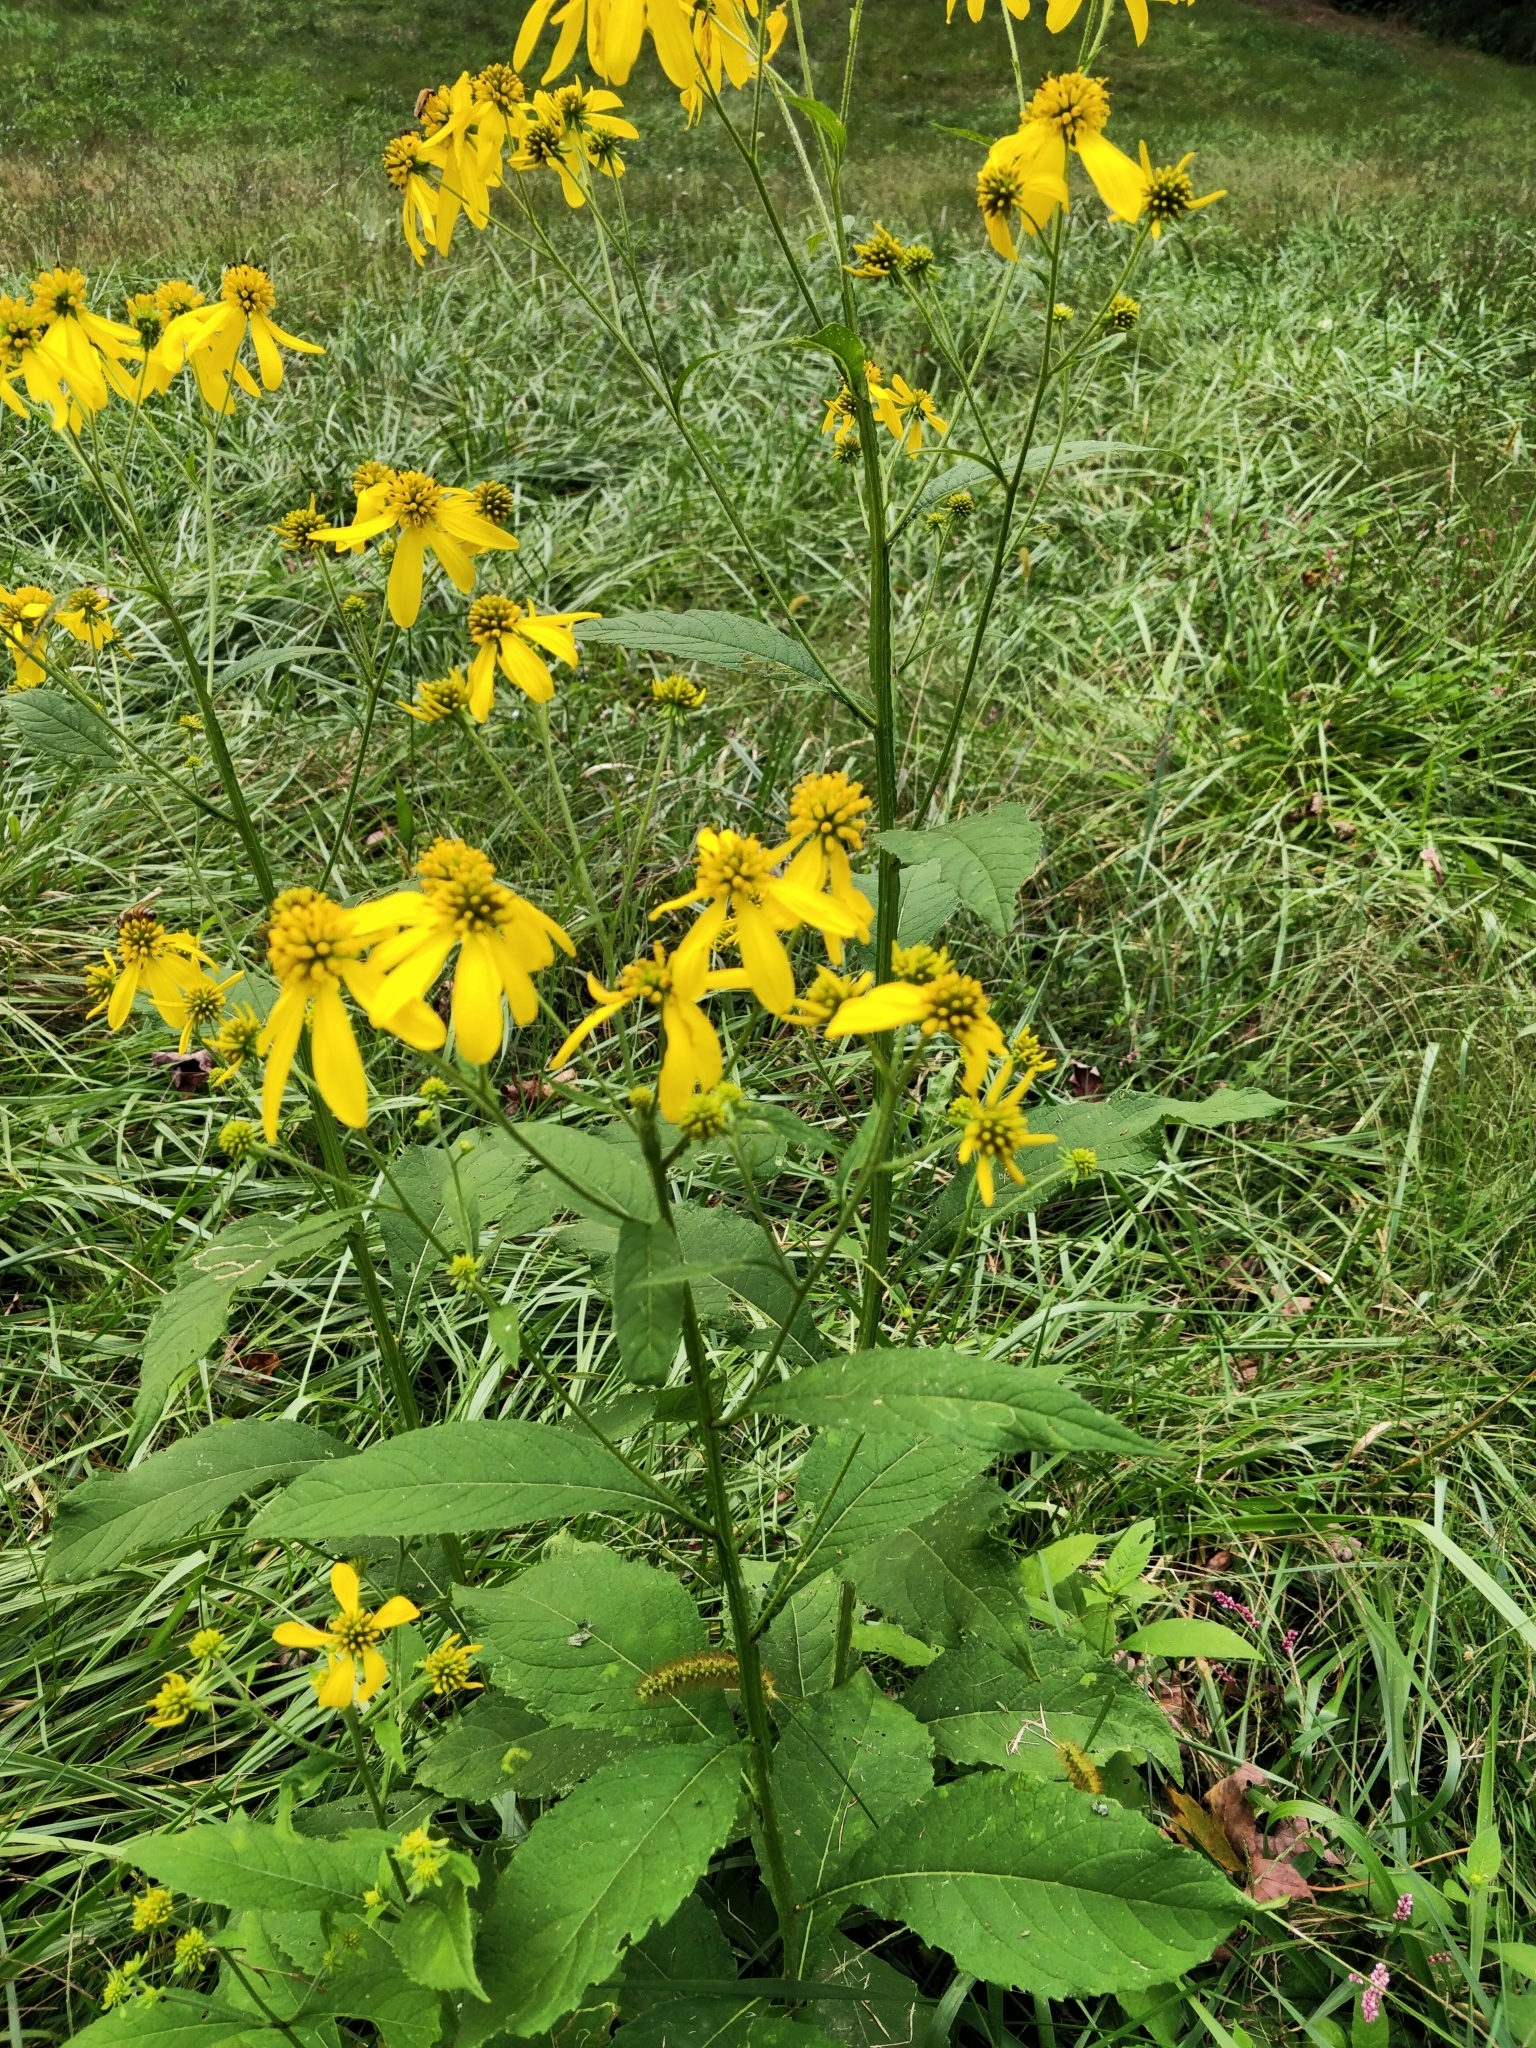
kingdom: Plantae
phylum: Tracheophyta
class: Magnoliopsida
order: Asterales
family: Asteraceae
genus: Verbesina
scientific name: Verbesina alternifolia
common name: Wingstem
